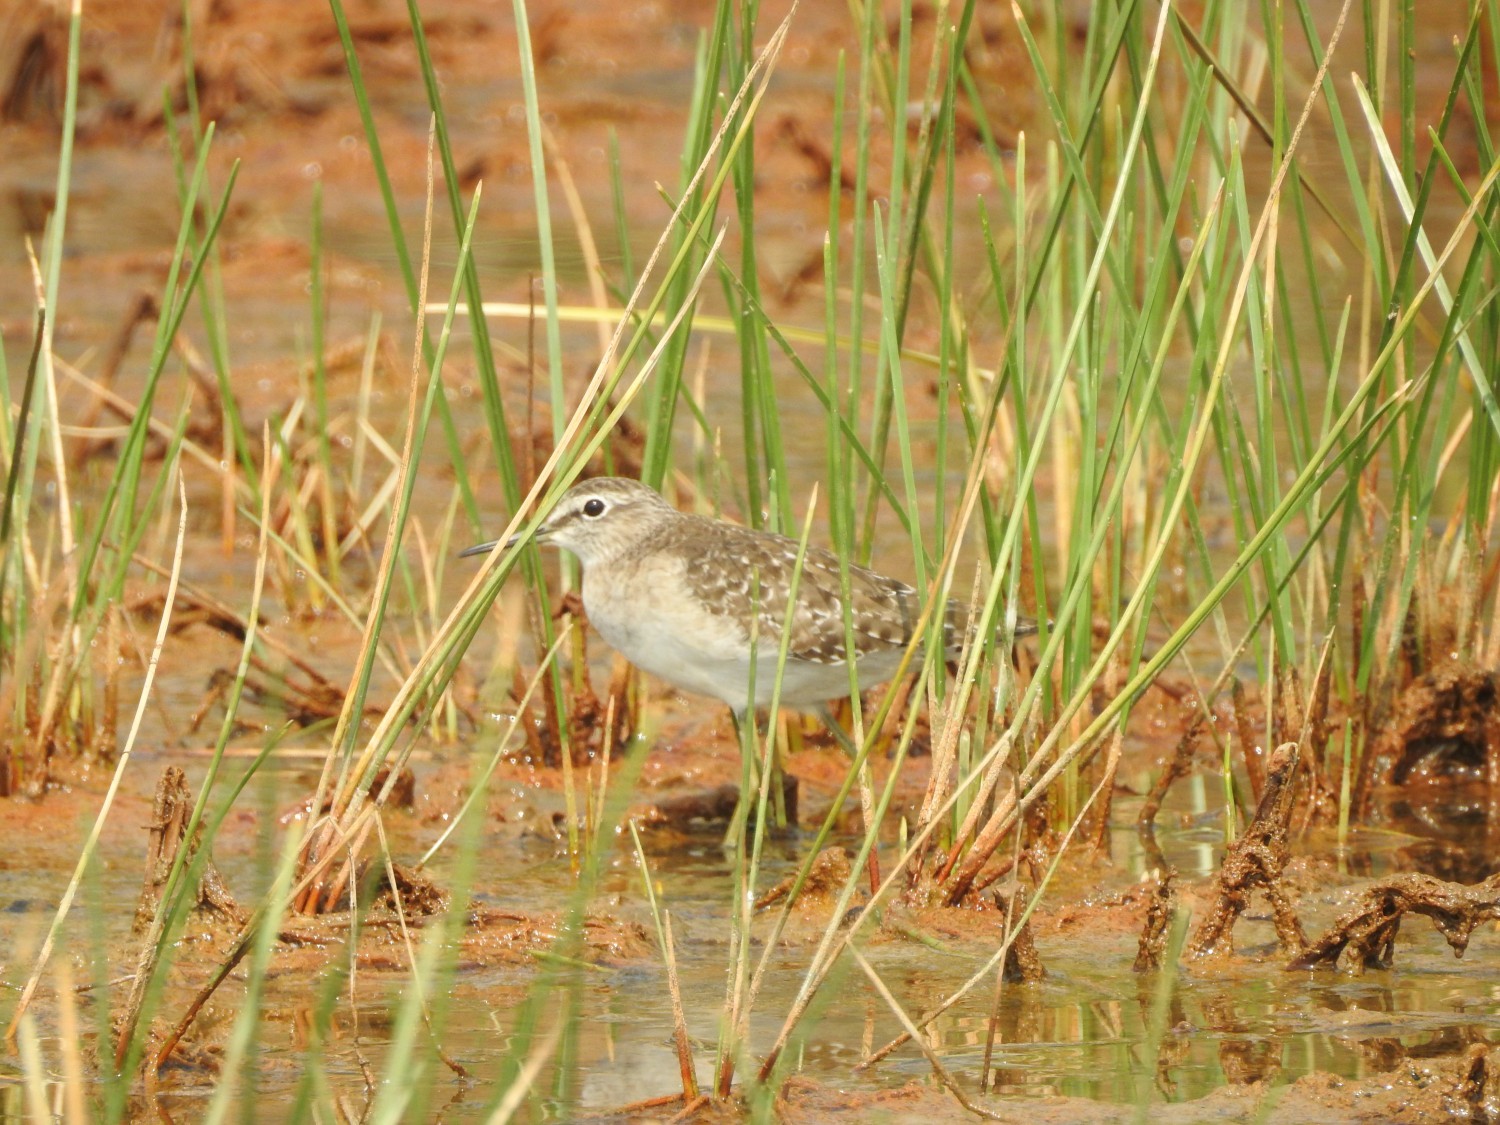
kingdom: Animalia
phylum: Chordata
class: Aves
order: Charadriiformes
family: Scolopacidae
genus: Tringa
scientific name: Tringa glareola
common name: Wood sandpiper
